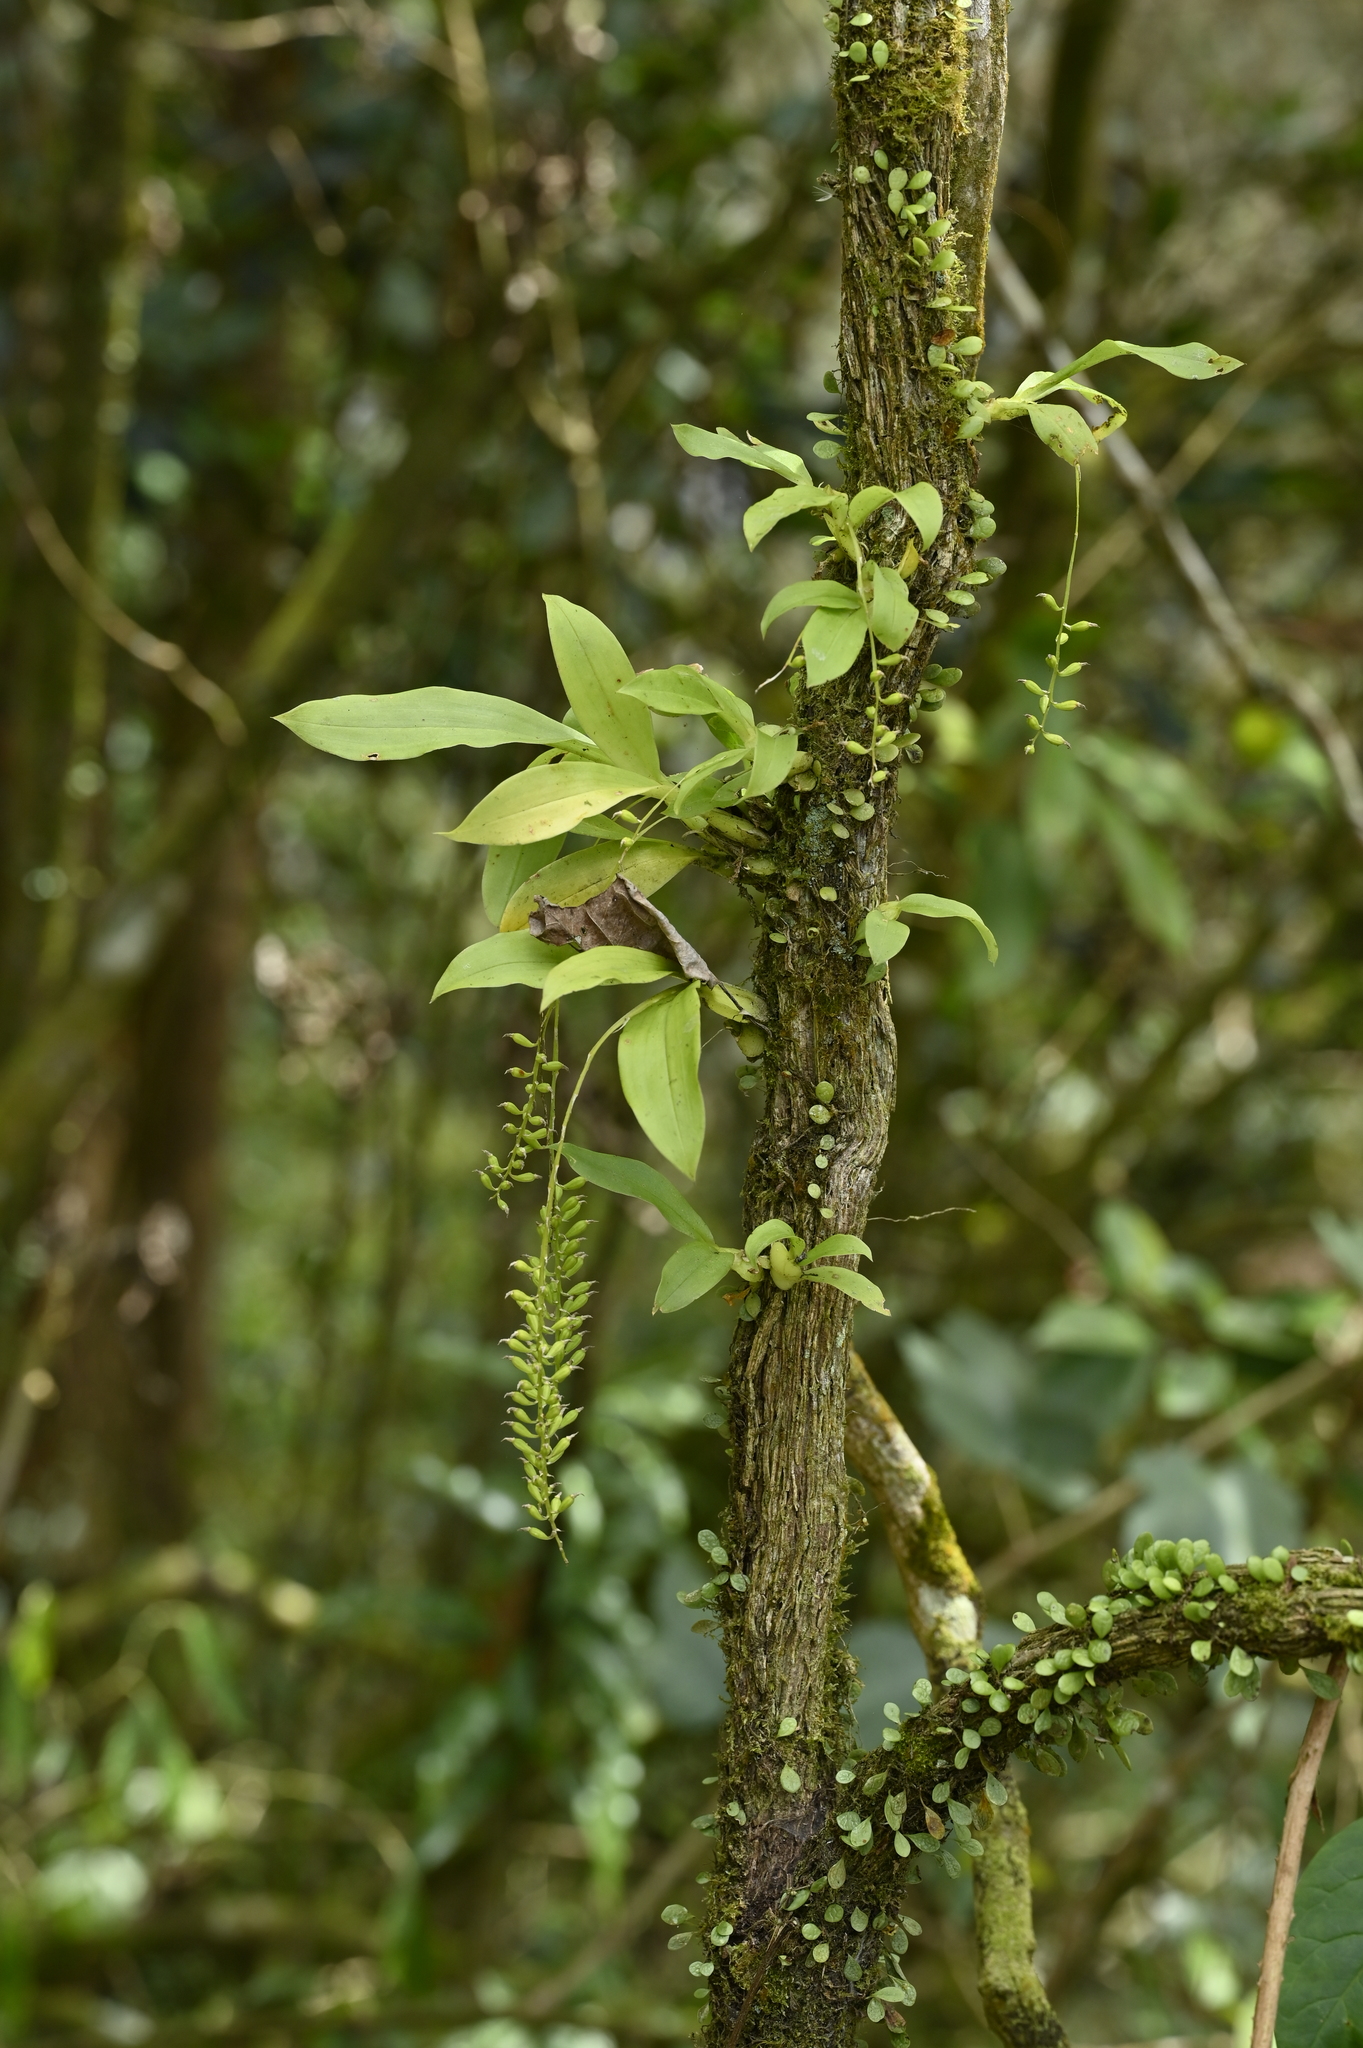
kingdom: Plantae
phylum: Tracheophyta
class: Liliopsida
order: Asparagales
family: Orchidaceae
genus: Liparis
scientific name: Liparis elliptica
